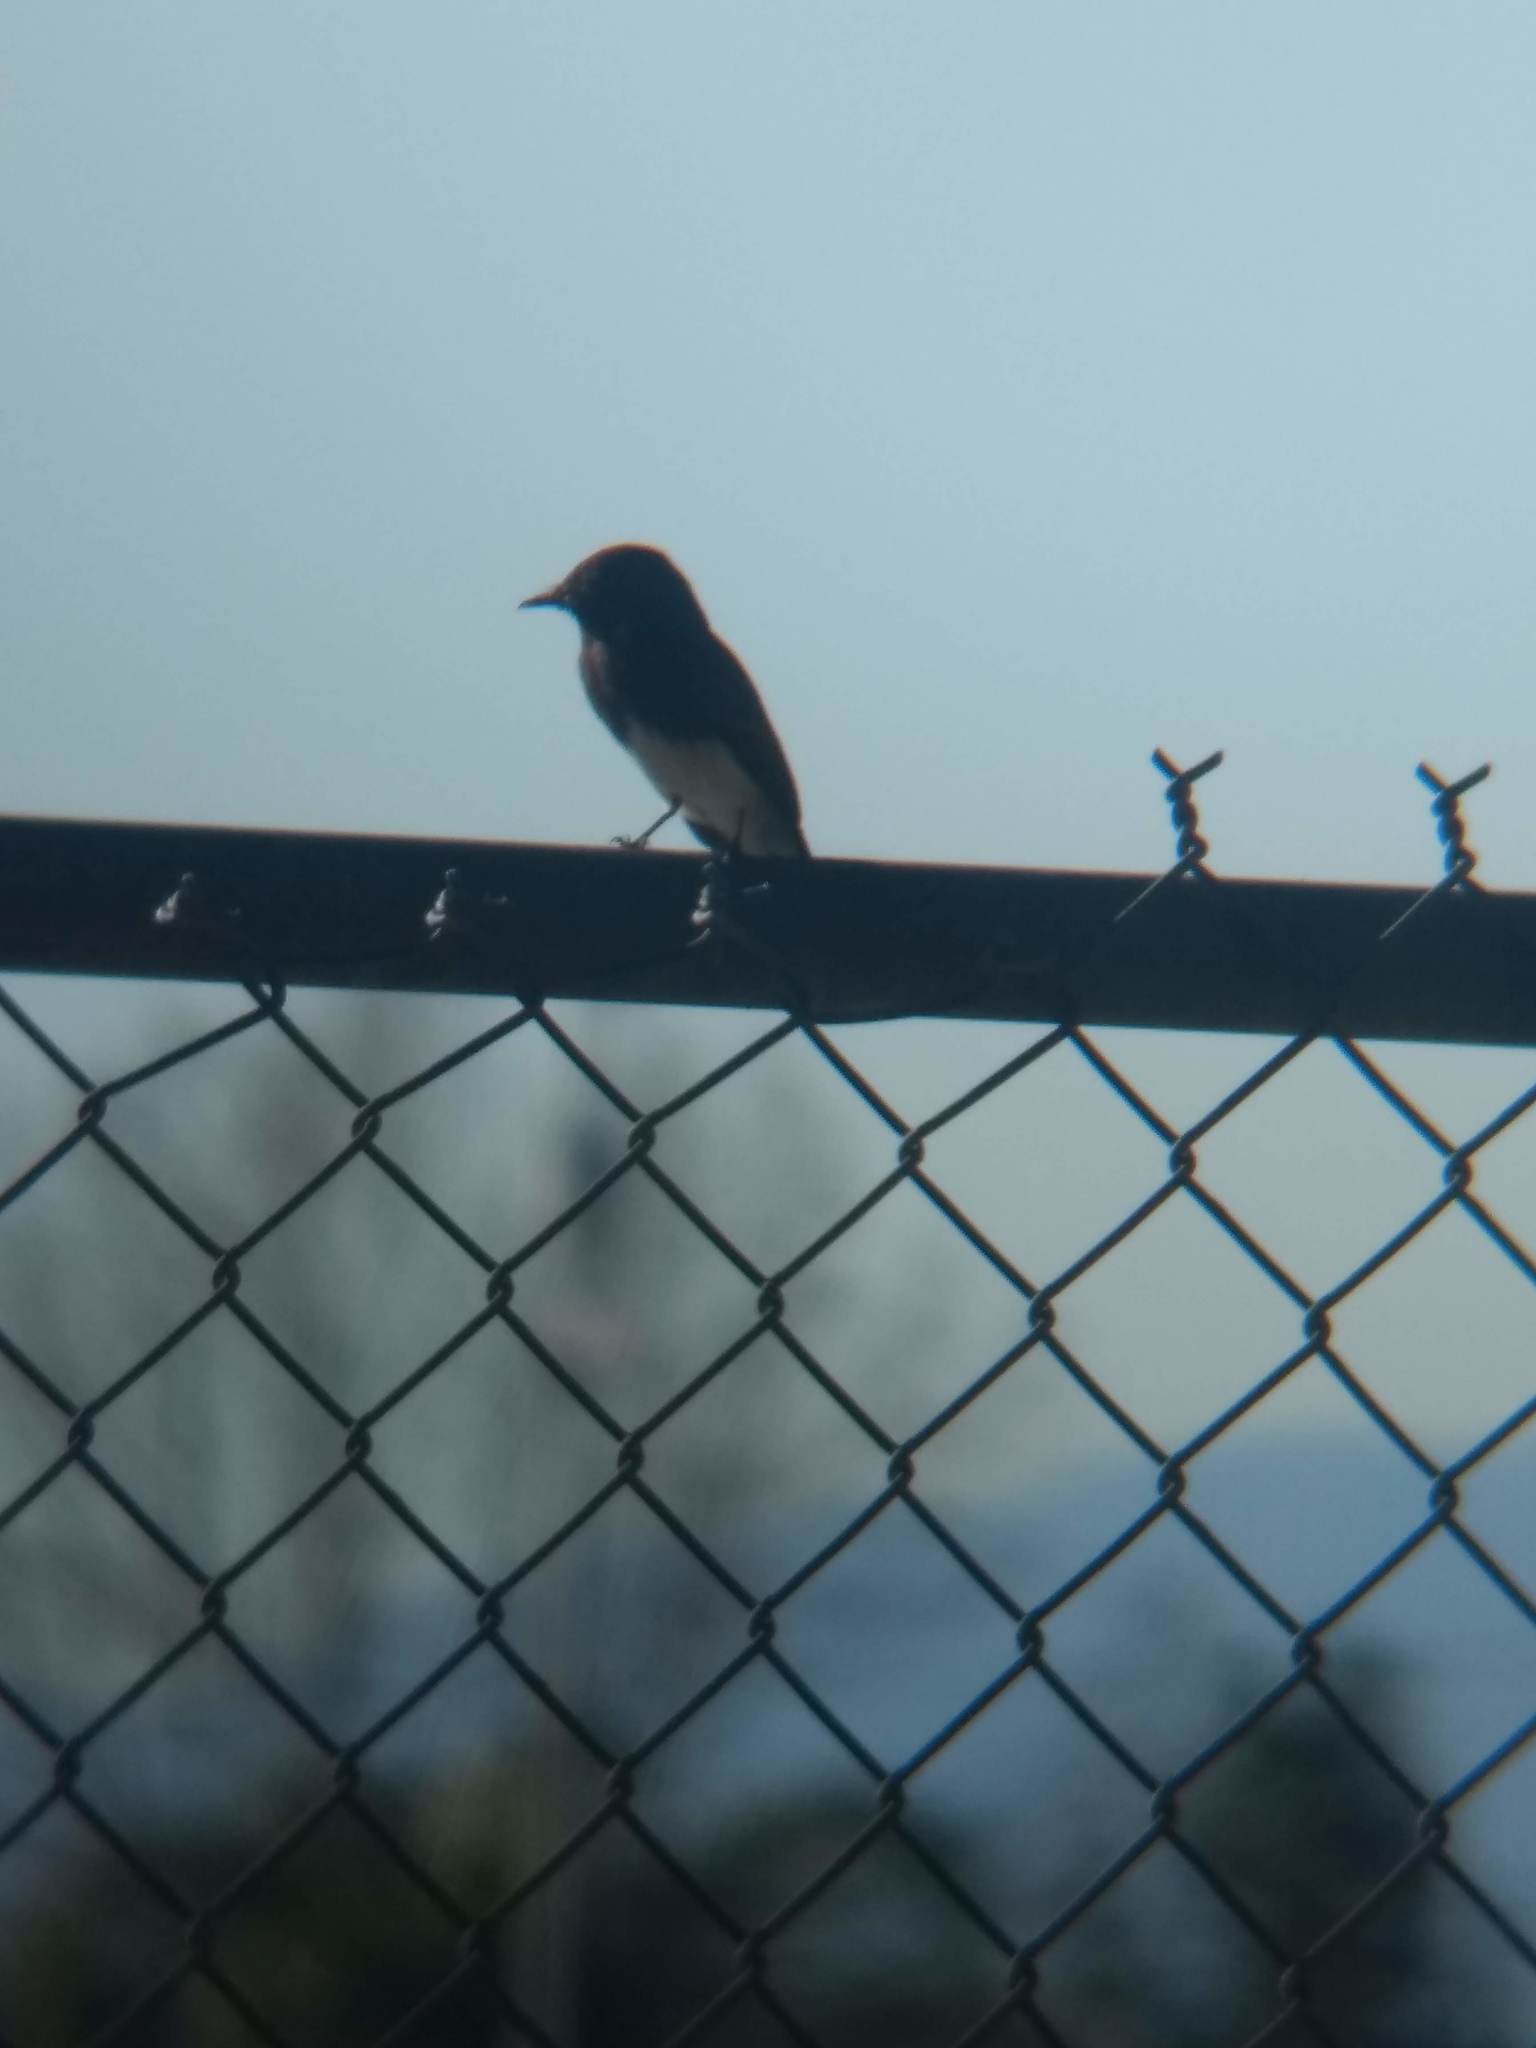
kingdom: Animalia
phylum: Chordata
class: Aves
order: Passeriformes
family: Tyrannidae
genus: Sayornis
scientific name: Sayornis nigricans
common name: Black phoebe
